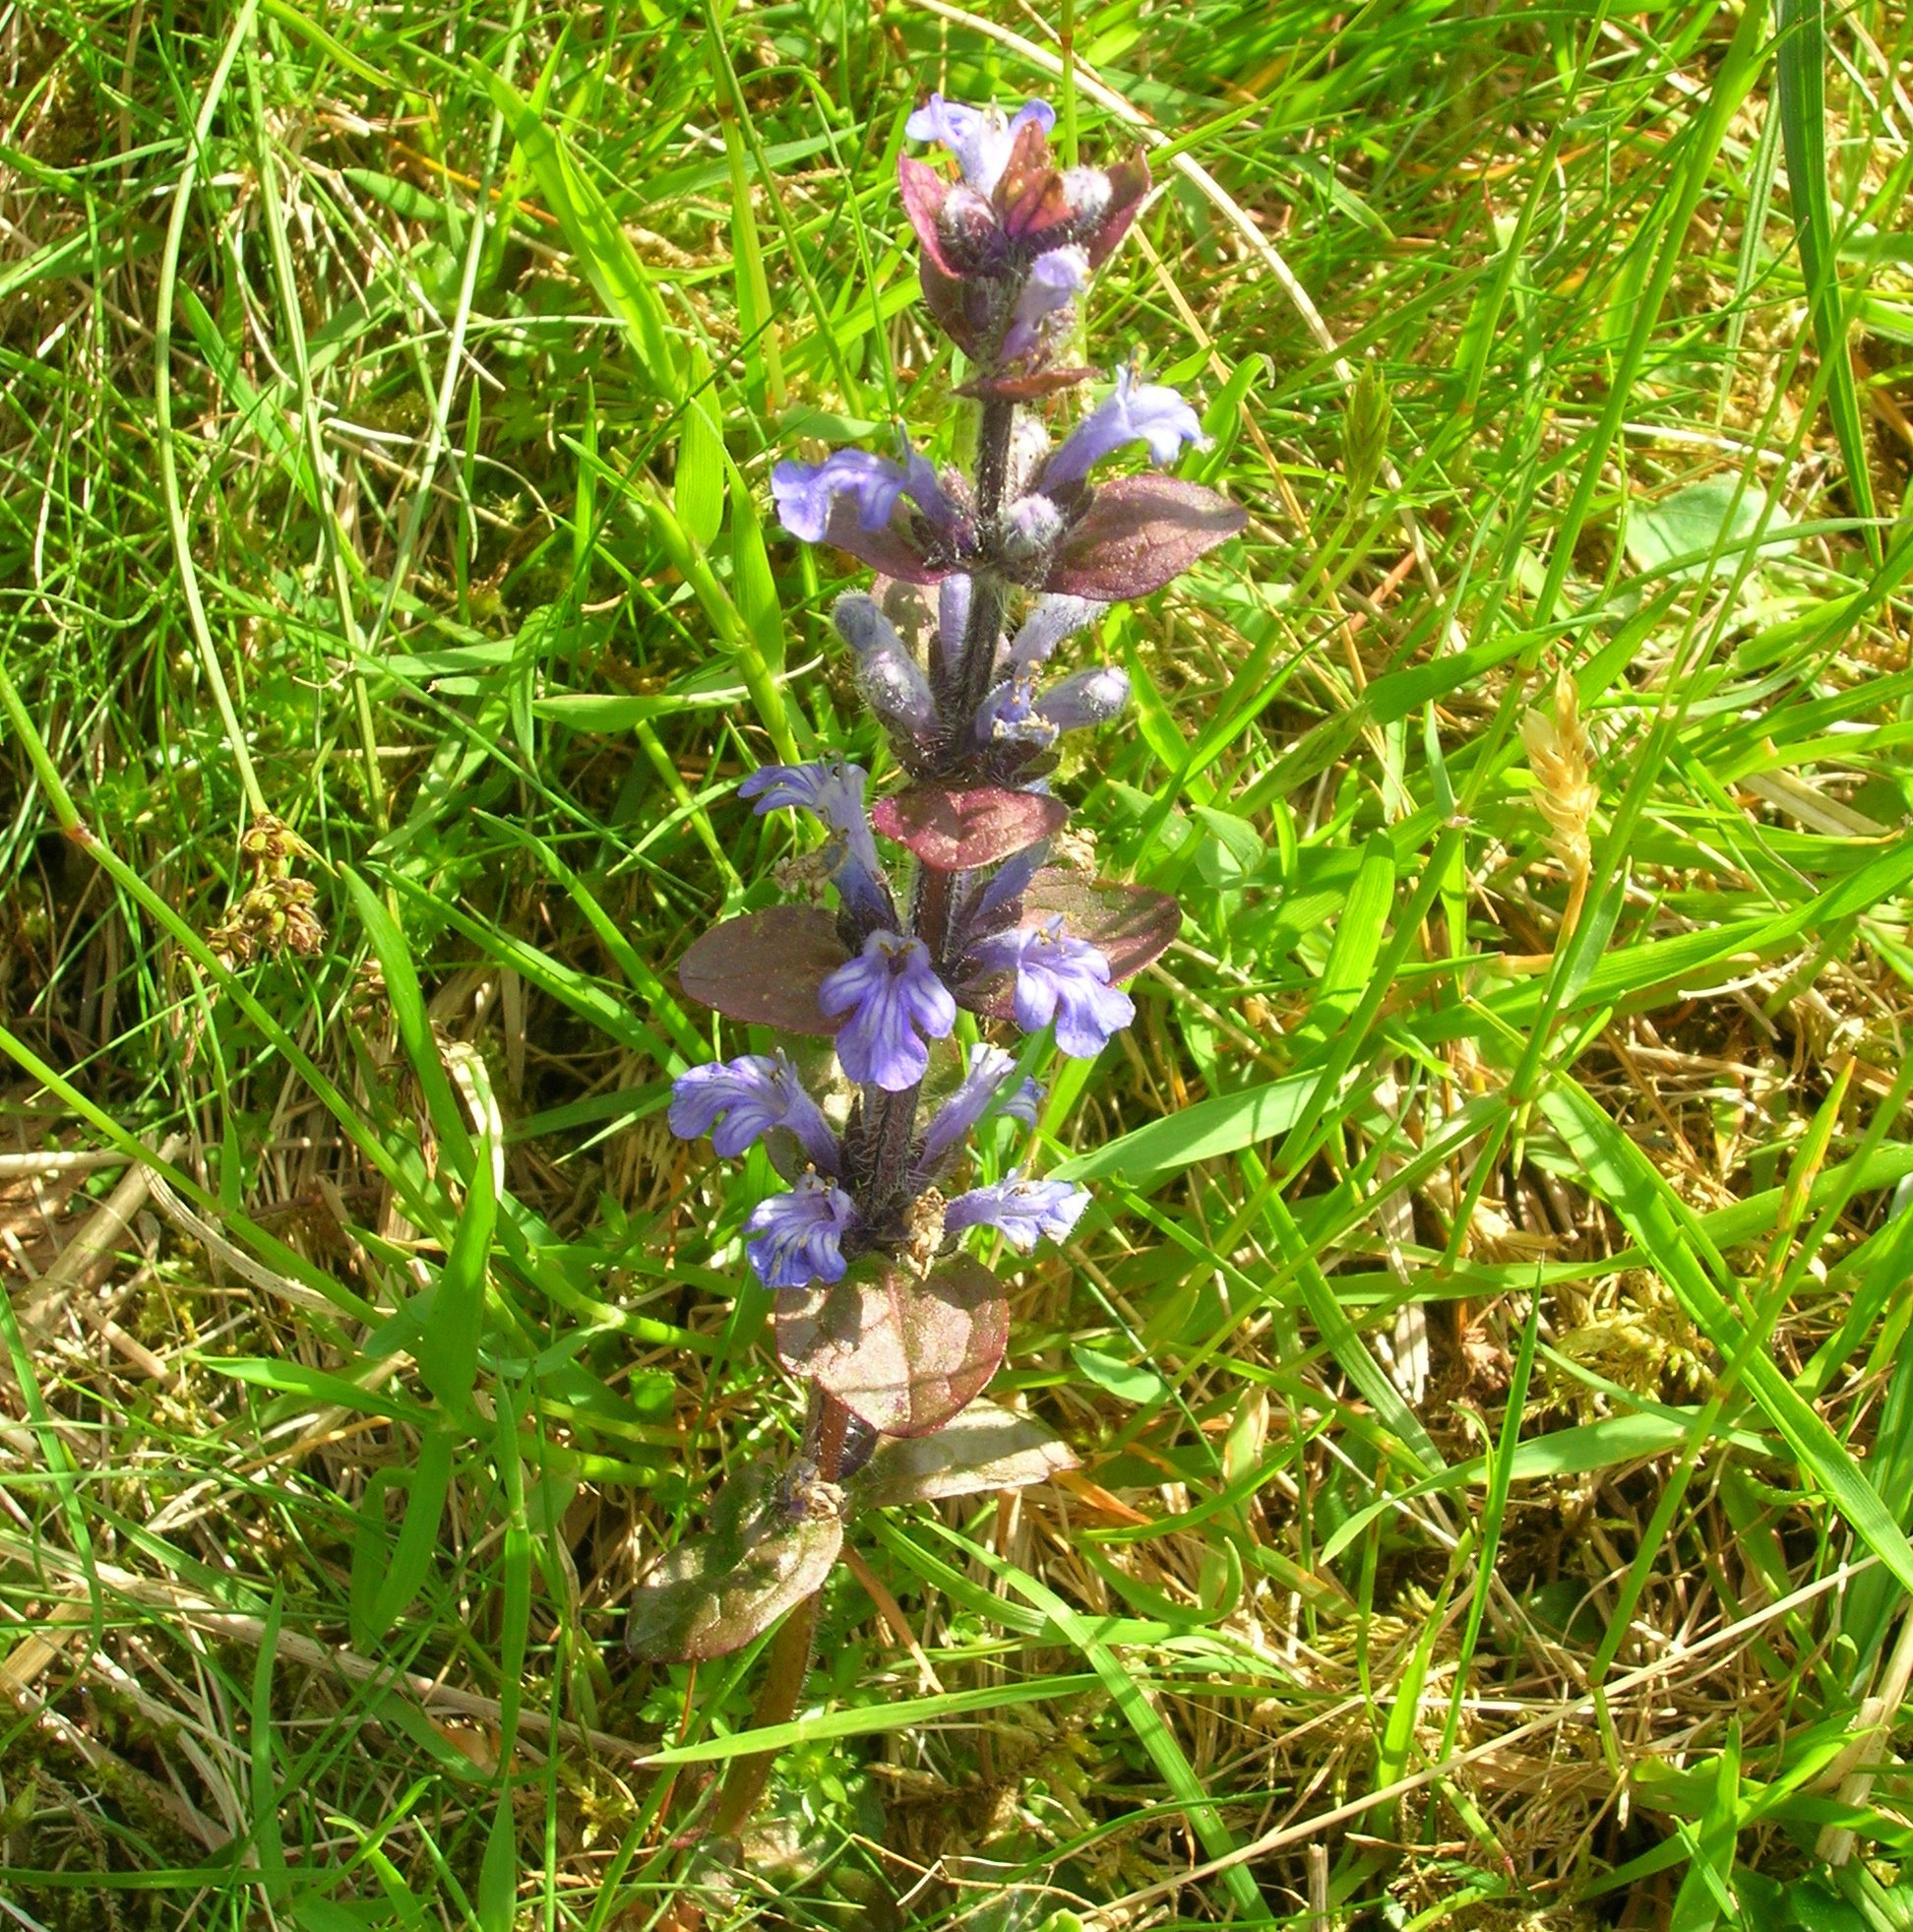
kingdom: Plantae
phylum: Tracheophyta
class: Magnoliopsida
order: Lamiales
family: Lamiaceae
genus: Ajuga
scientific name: Ajuga reptans
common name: Bugle
